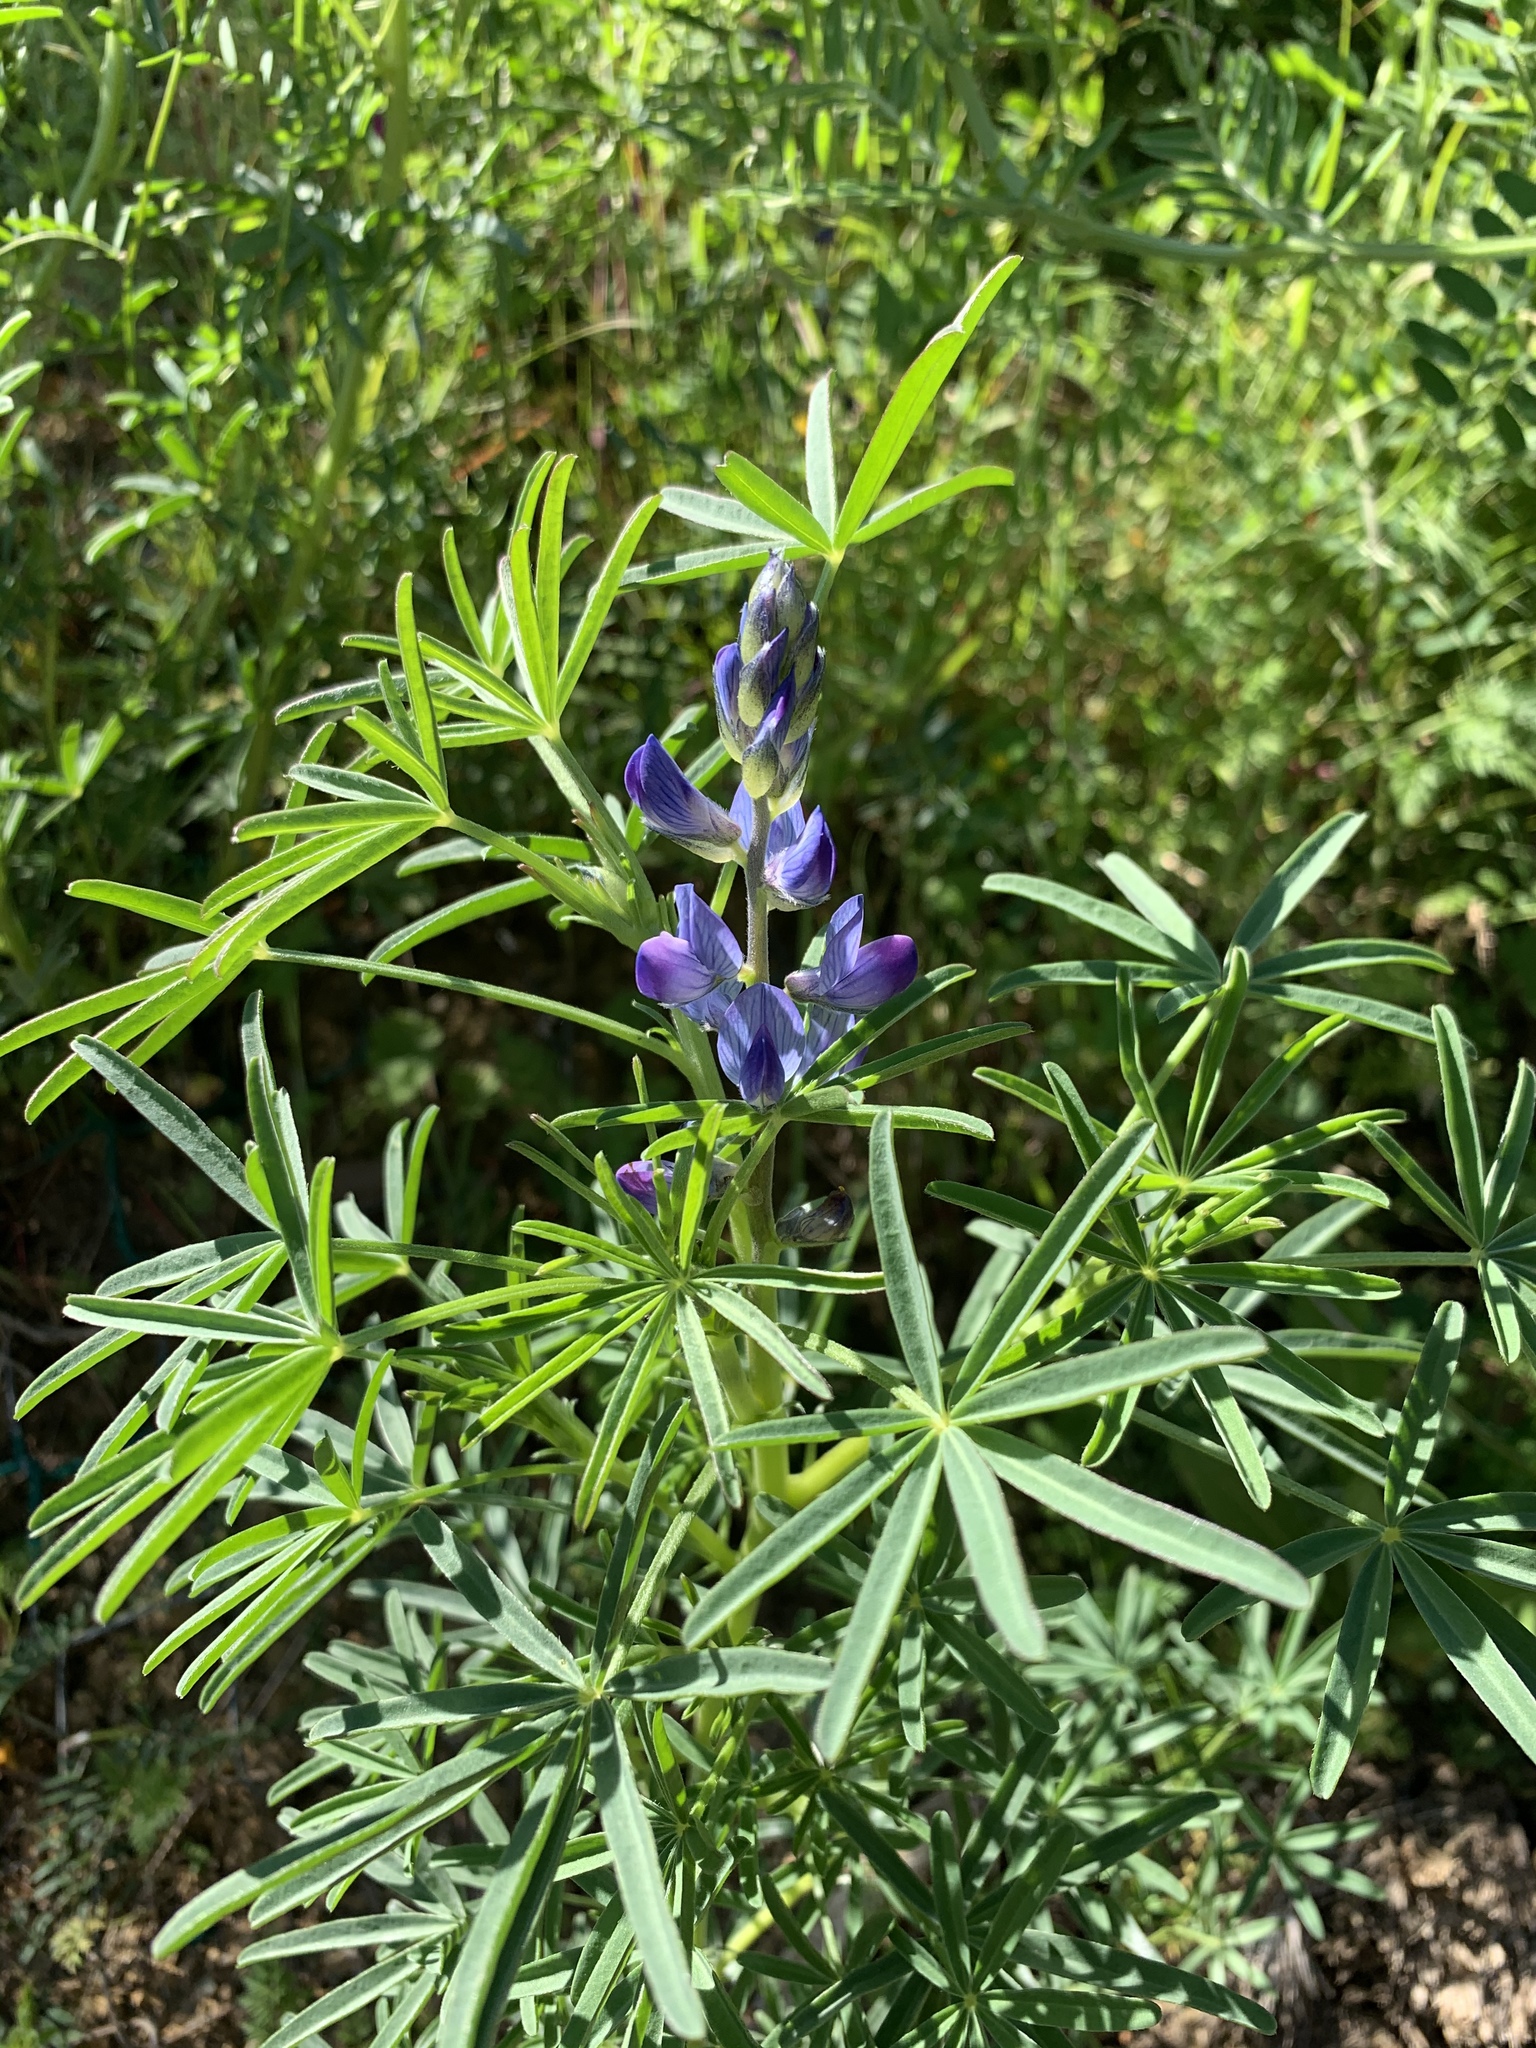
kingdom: Plantae
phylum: Tracheophyta
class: Magnoliopsida
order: Fabales
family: Fabaceae
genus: Lupinus
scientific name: Lupinus angustifolius
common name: Narrow-leaved lupin
